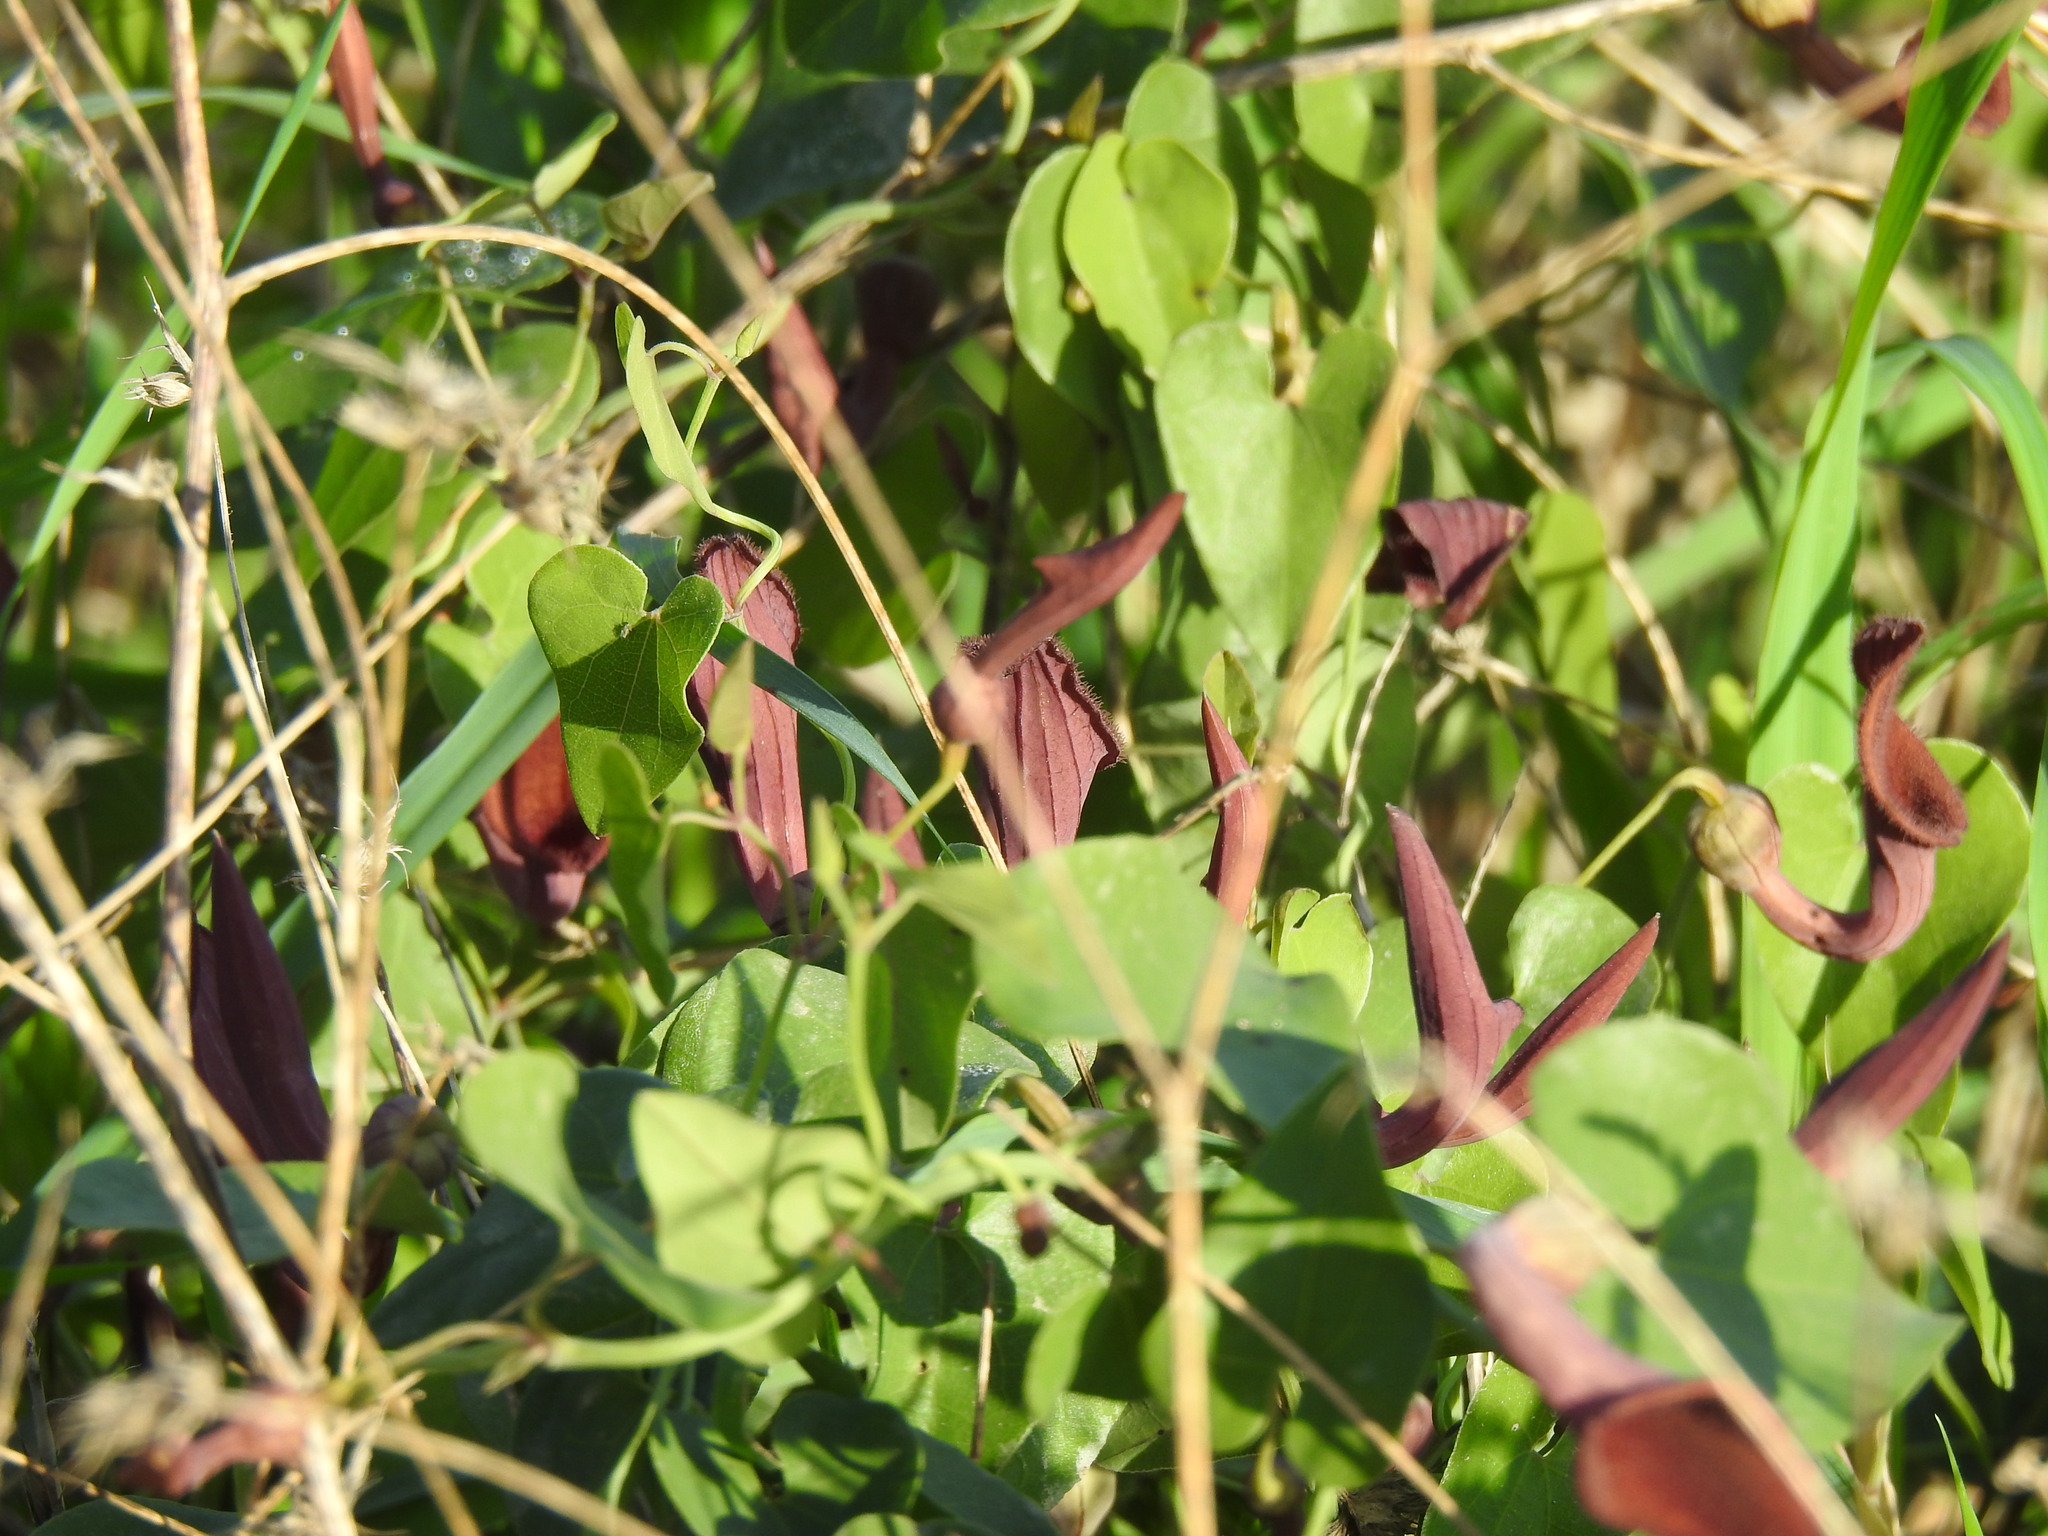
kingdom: Plantae
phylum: Tracheophyta
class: Magnoliopsida
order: Piperales
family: Aristolochiaceae
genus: Aristolochia
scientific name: Aristolochia baetica
